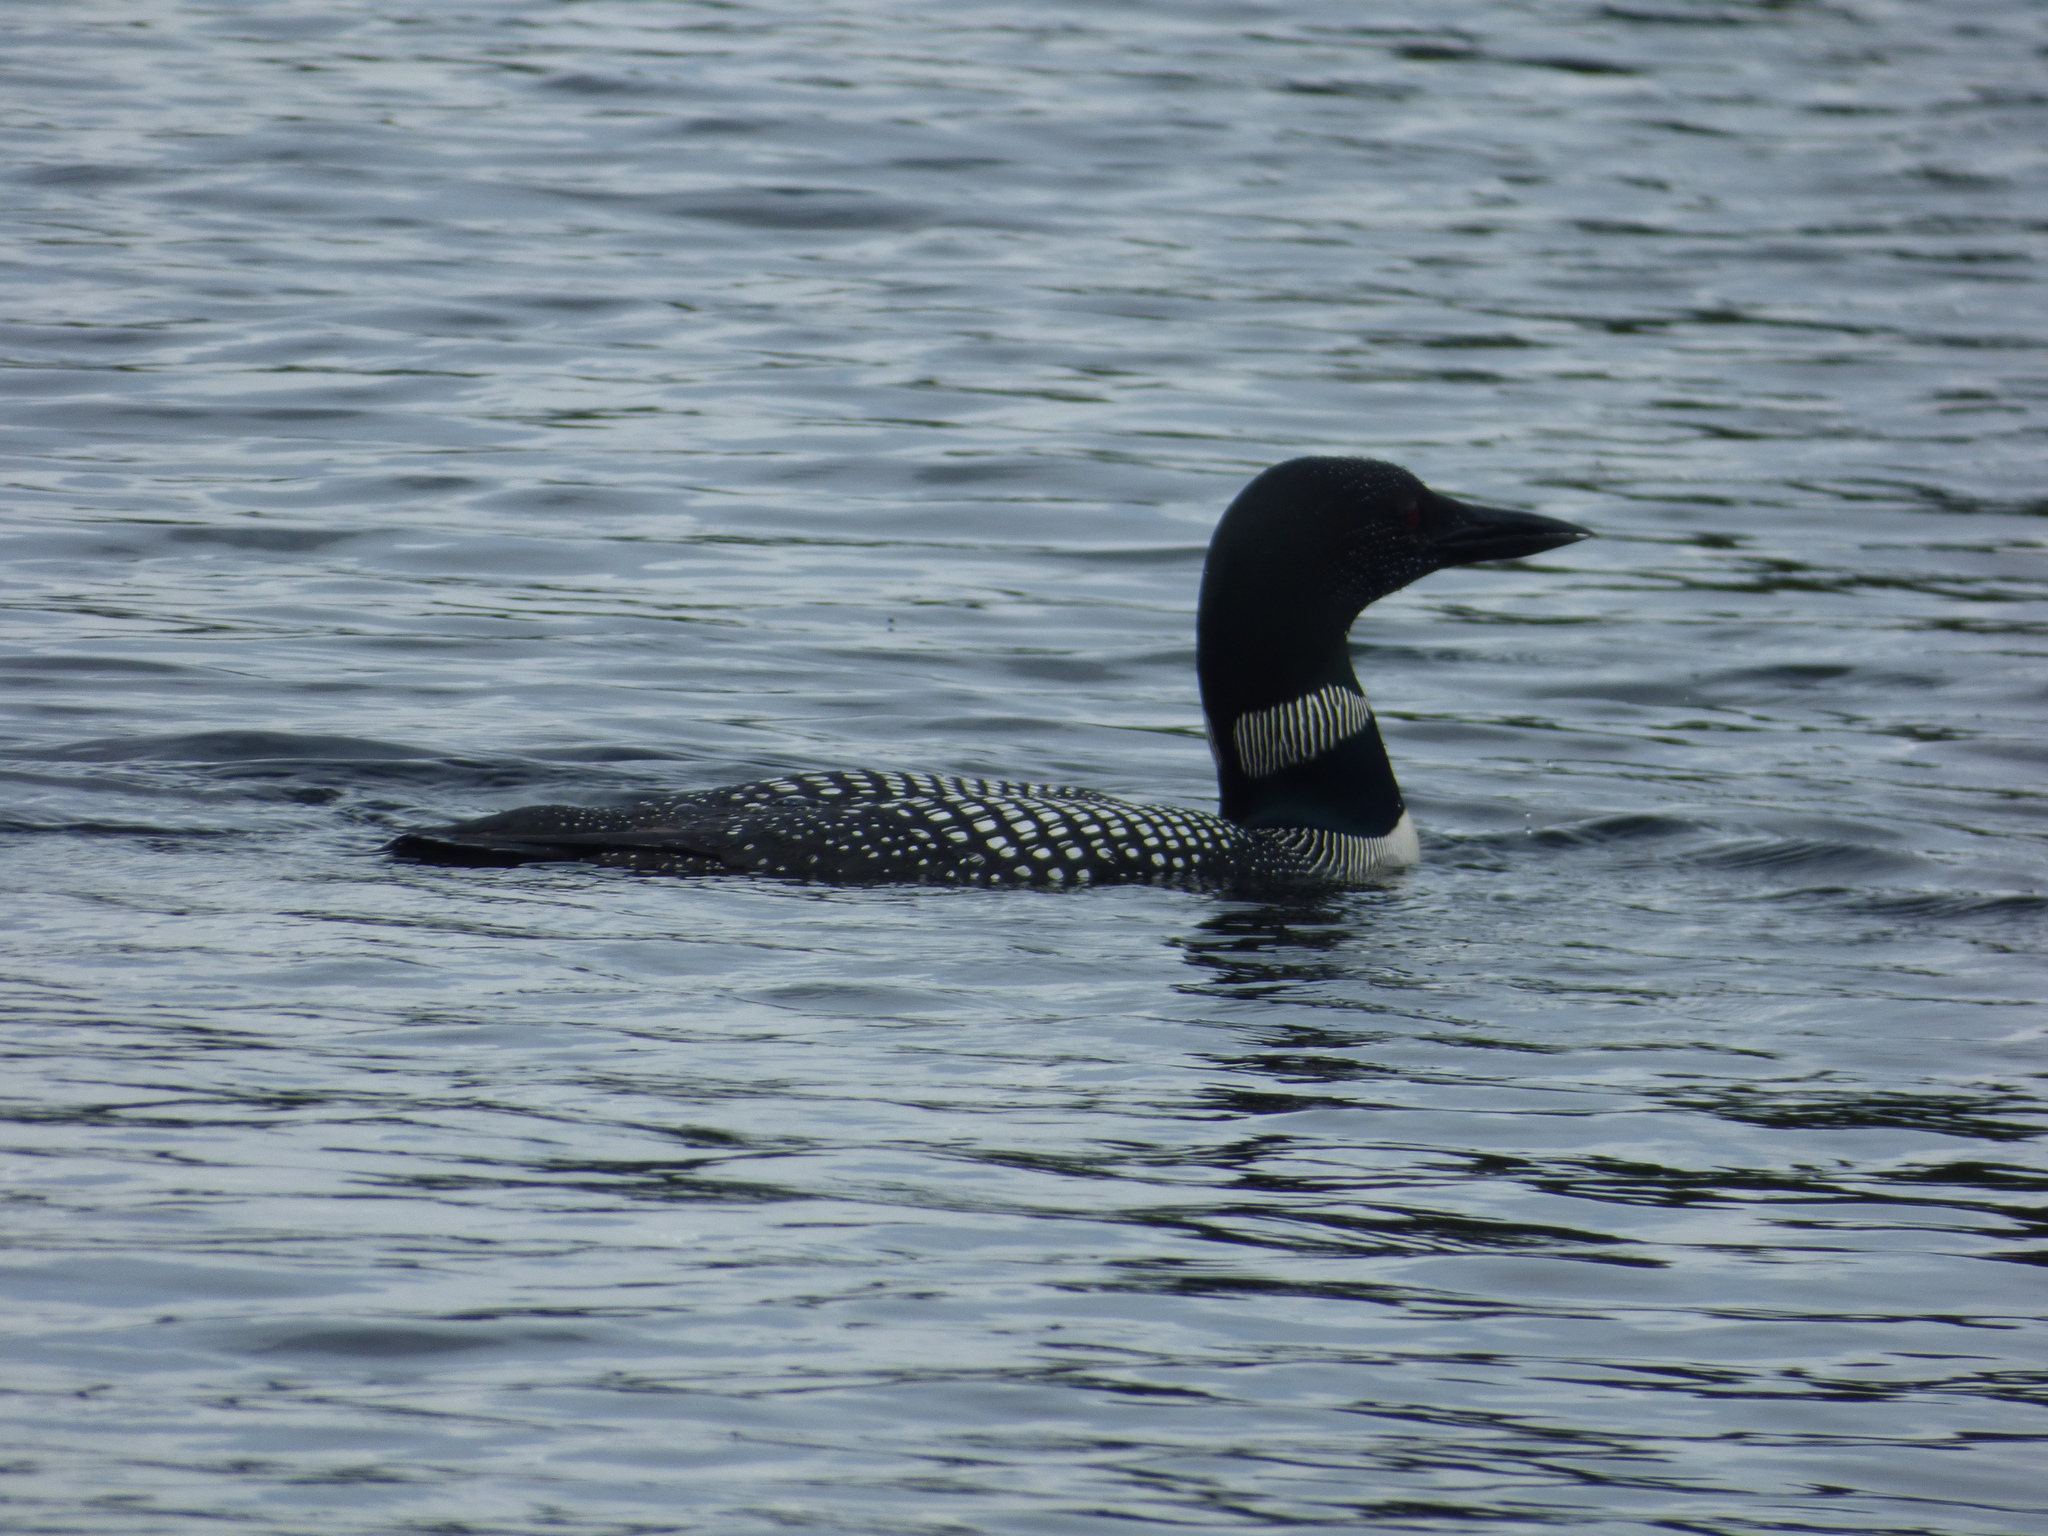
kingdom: Animalia
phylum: Chordata
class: Aves
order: Gaviiformes
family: Gaviidae
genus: Gavia
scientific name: Gavia immer
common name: Common loon
